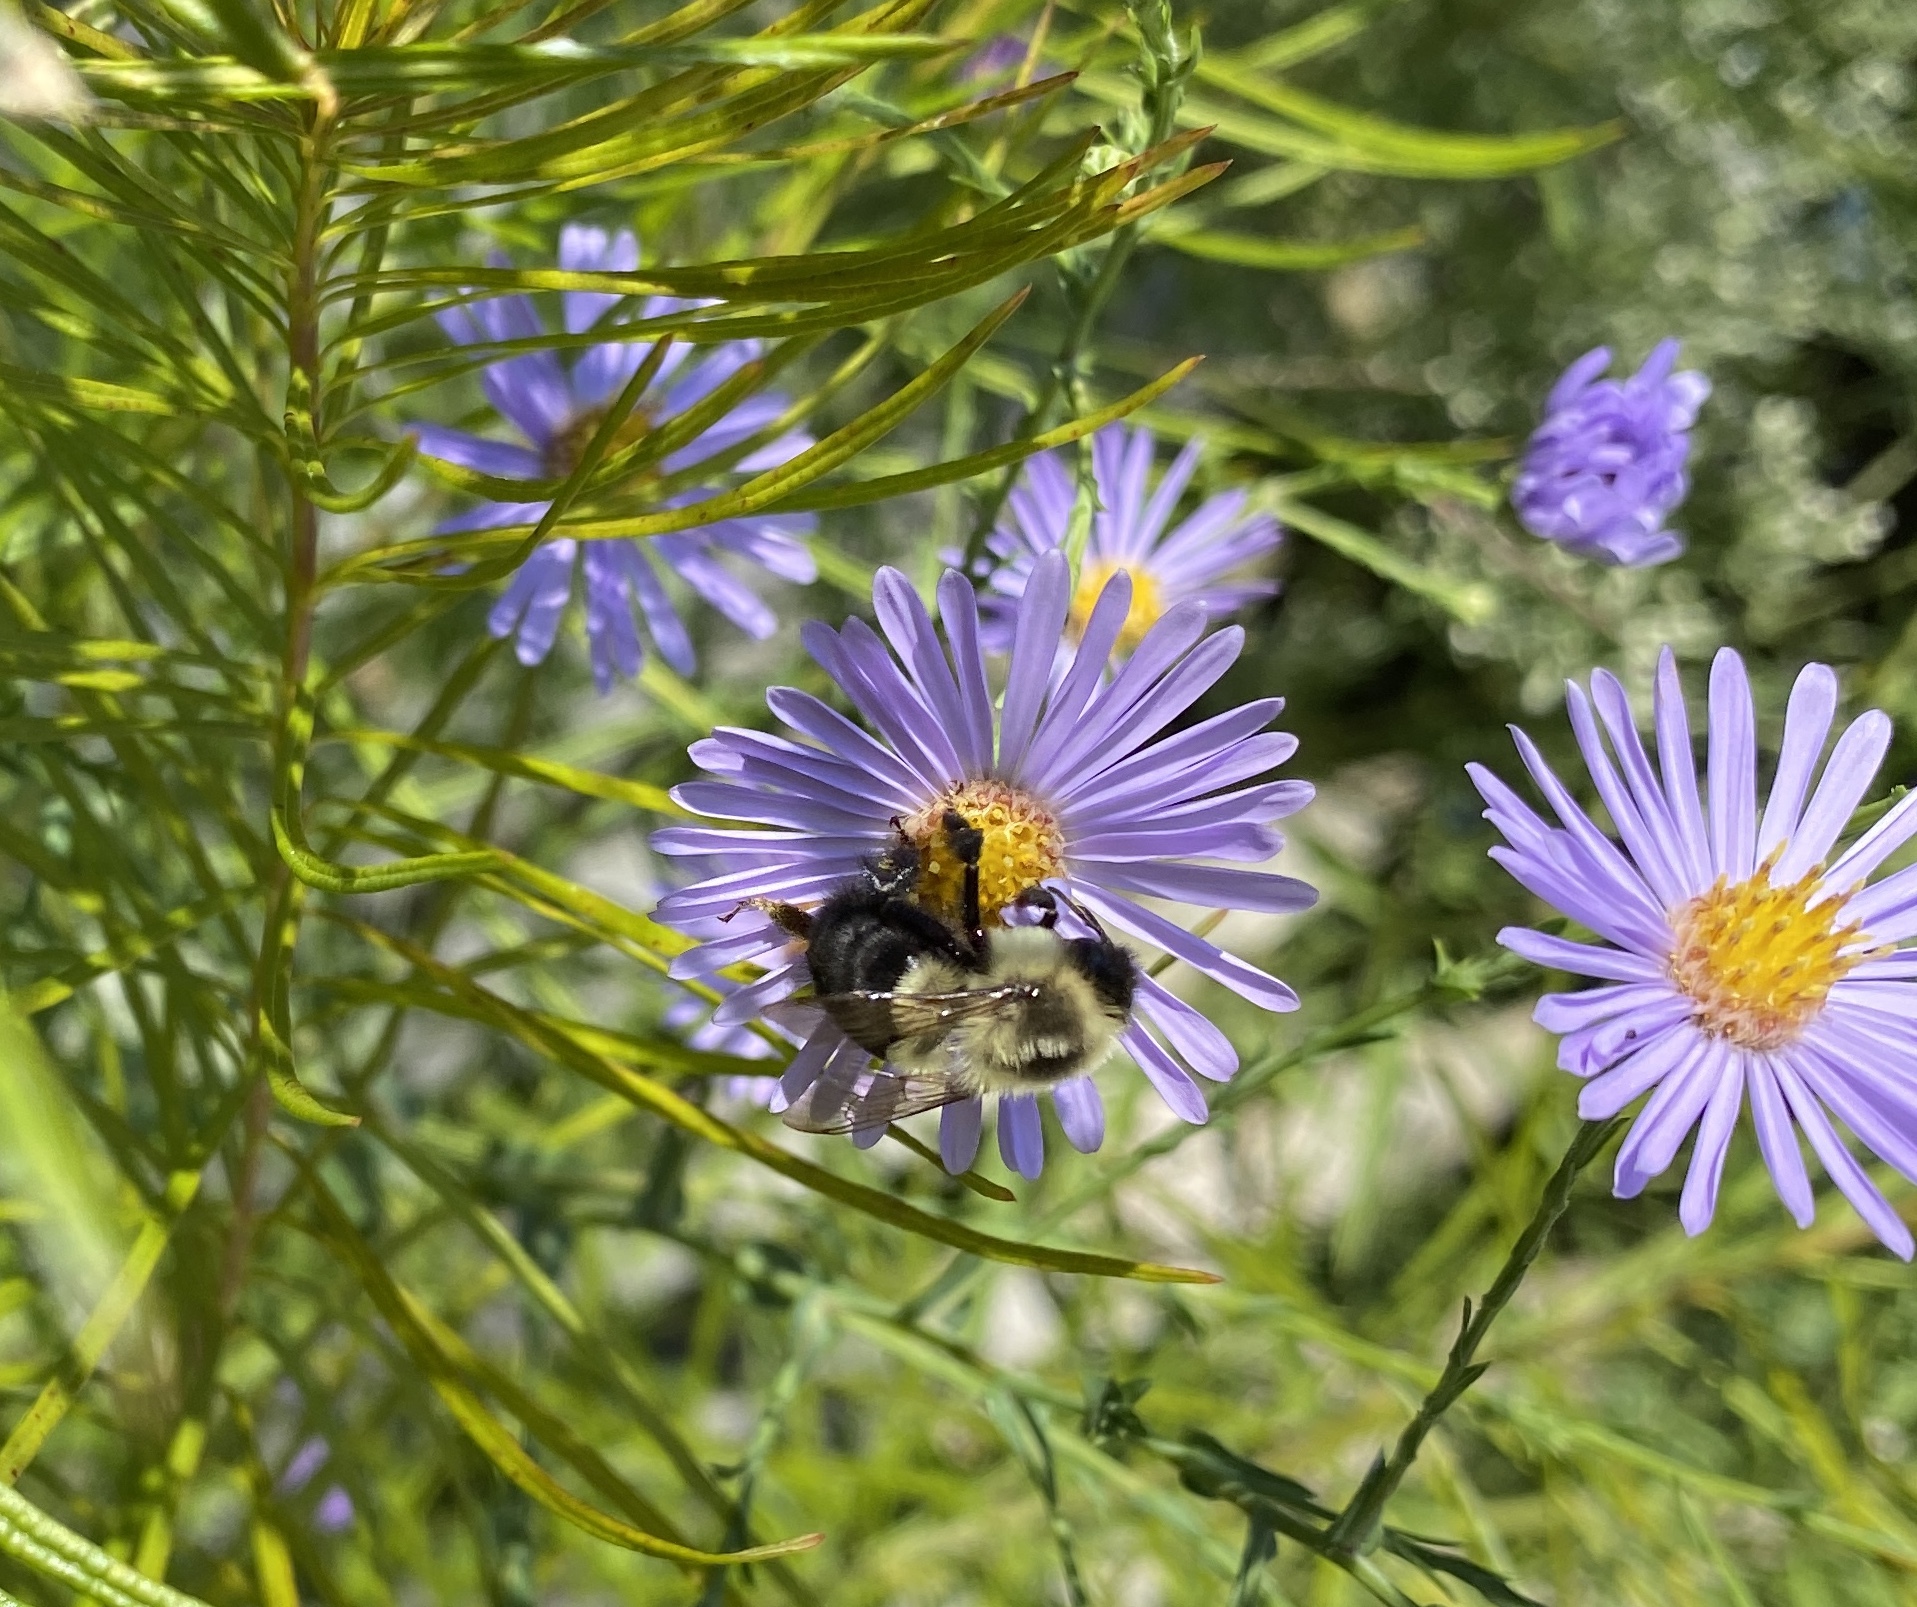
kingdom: Animalia
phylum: Arthropoda
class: Insecta
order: Hymenoptera
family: Apidae
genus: Bombus
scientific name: Bombus impatiens
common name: Common eastern bumble bee
